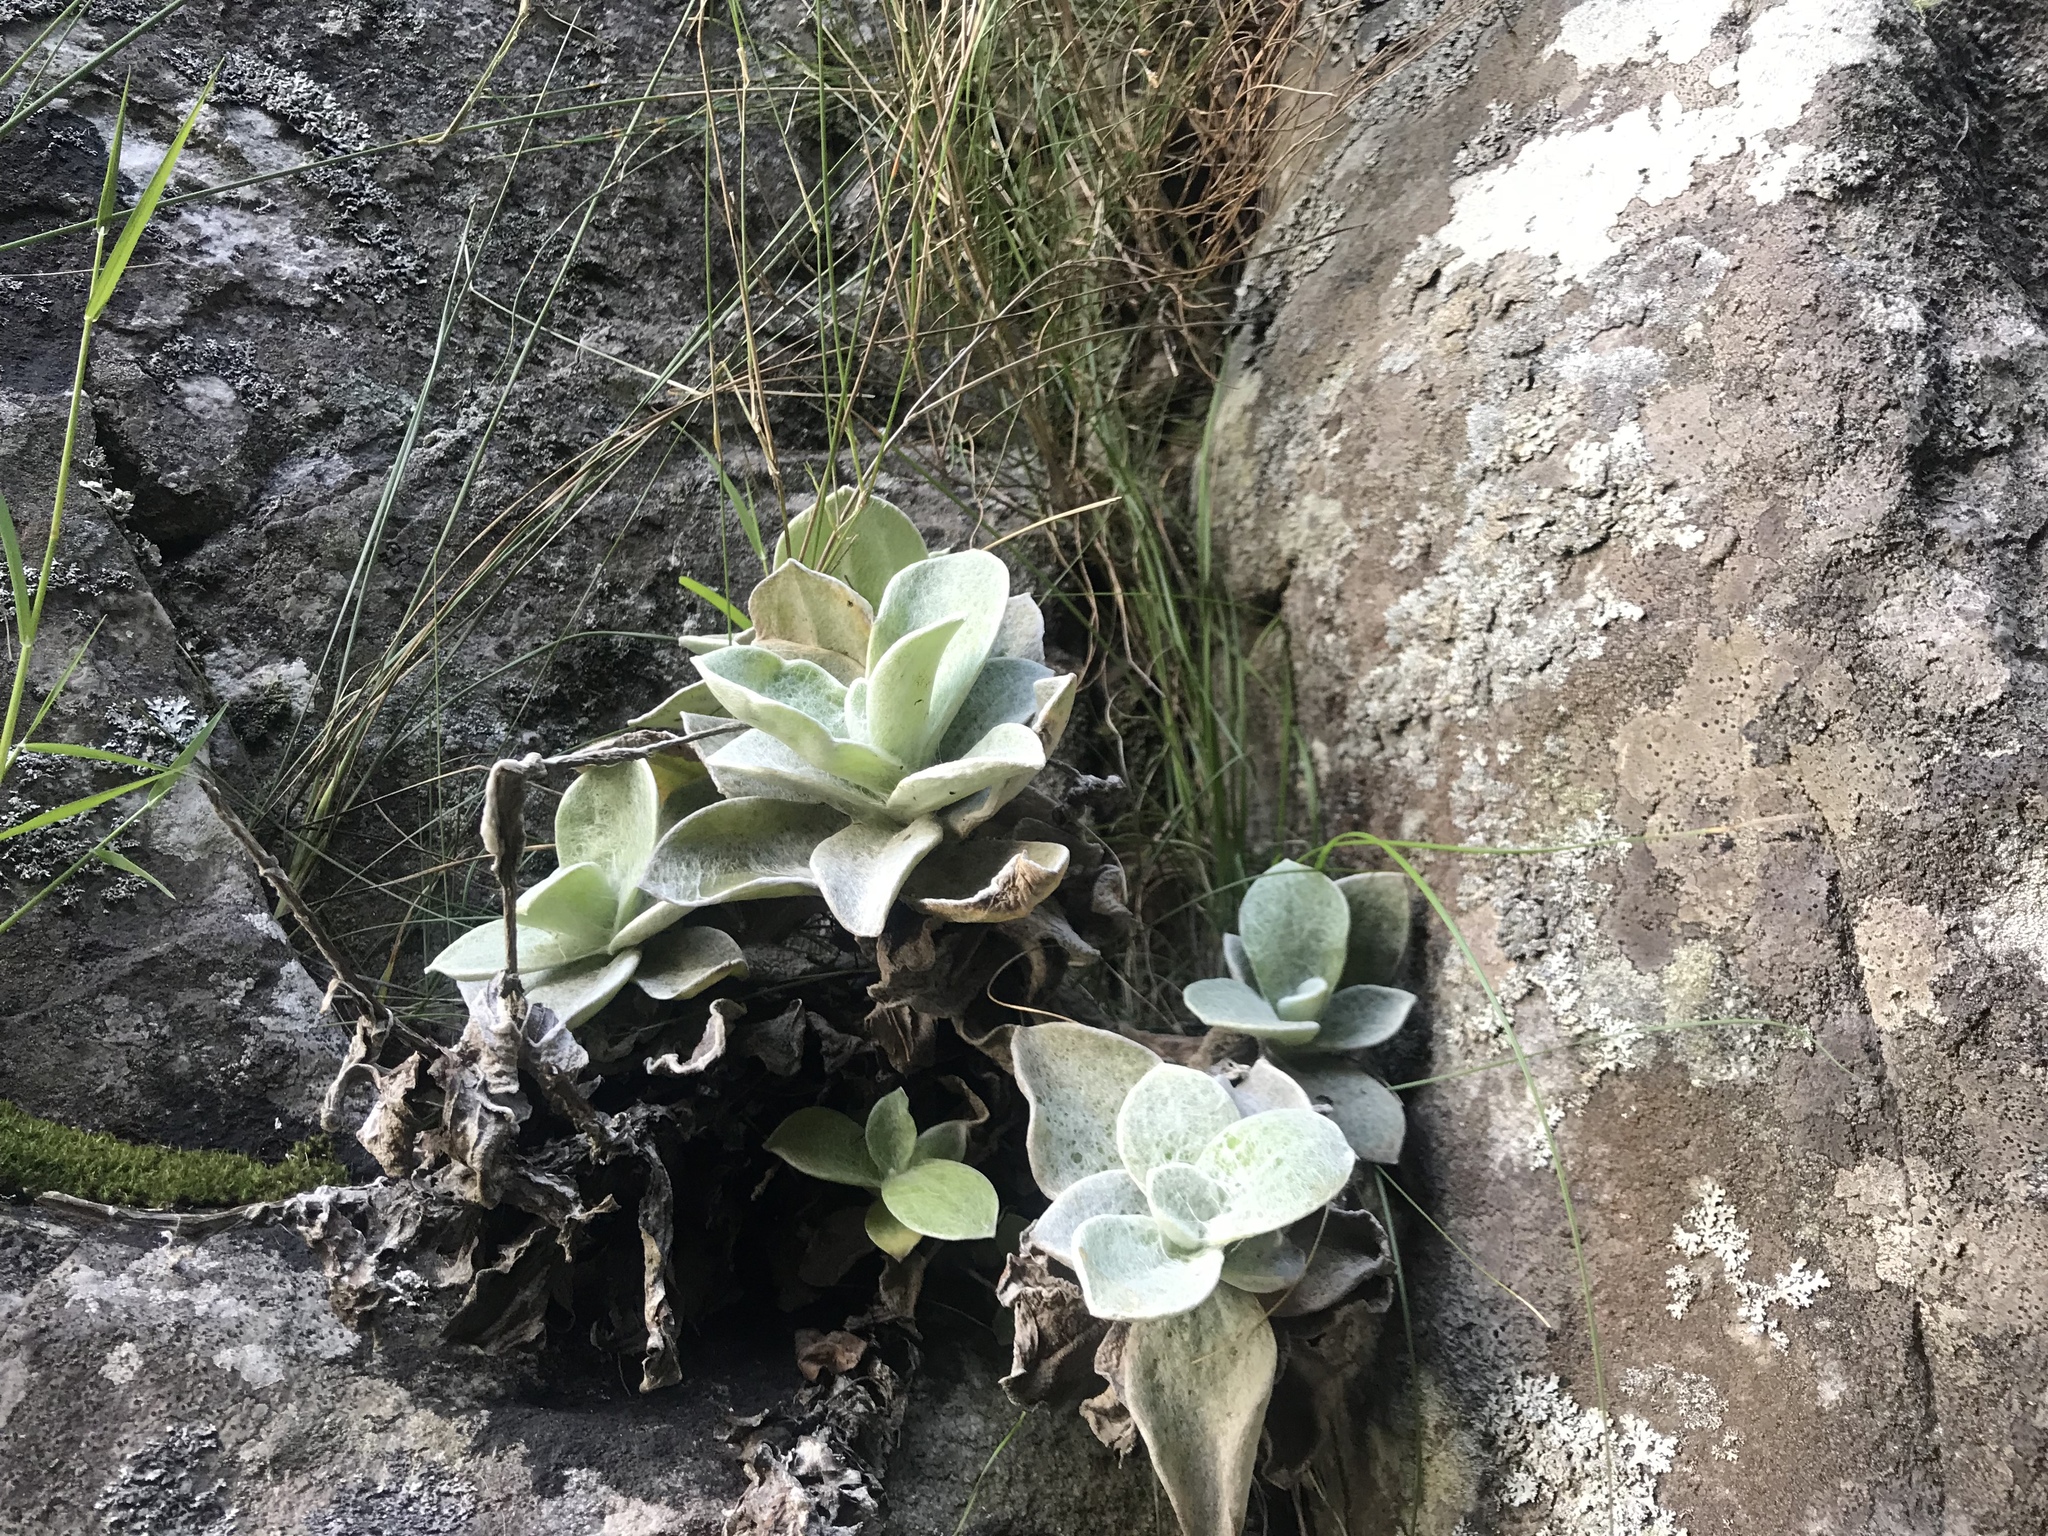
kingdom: Plantae
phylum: Tracheophyta
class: Magnoliopsida
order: Asterales
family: Asteraceae
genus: Helichrysum
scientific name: Helichrysum grandiflorum
